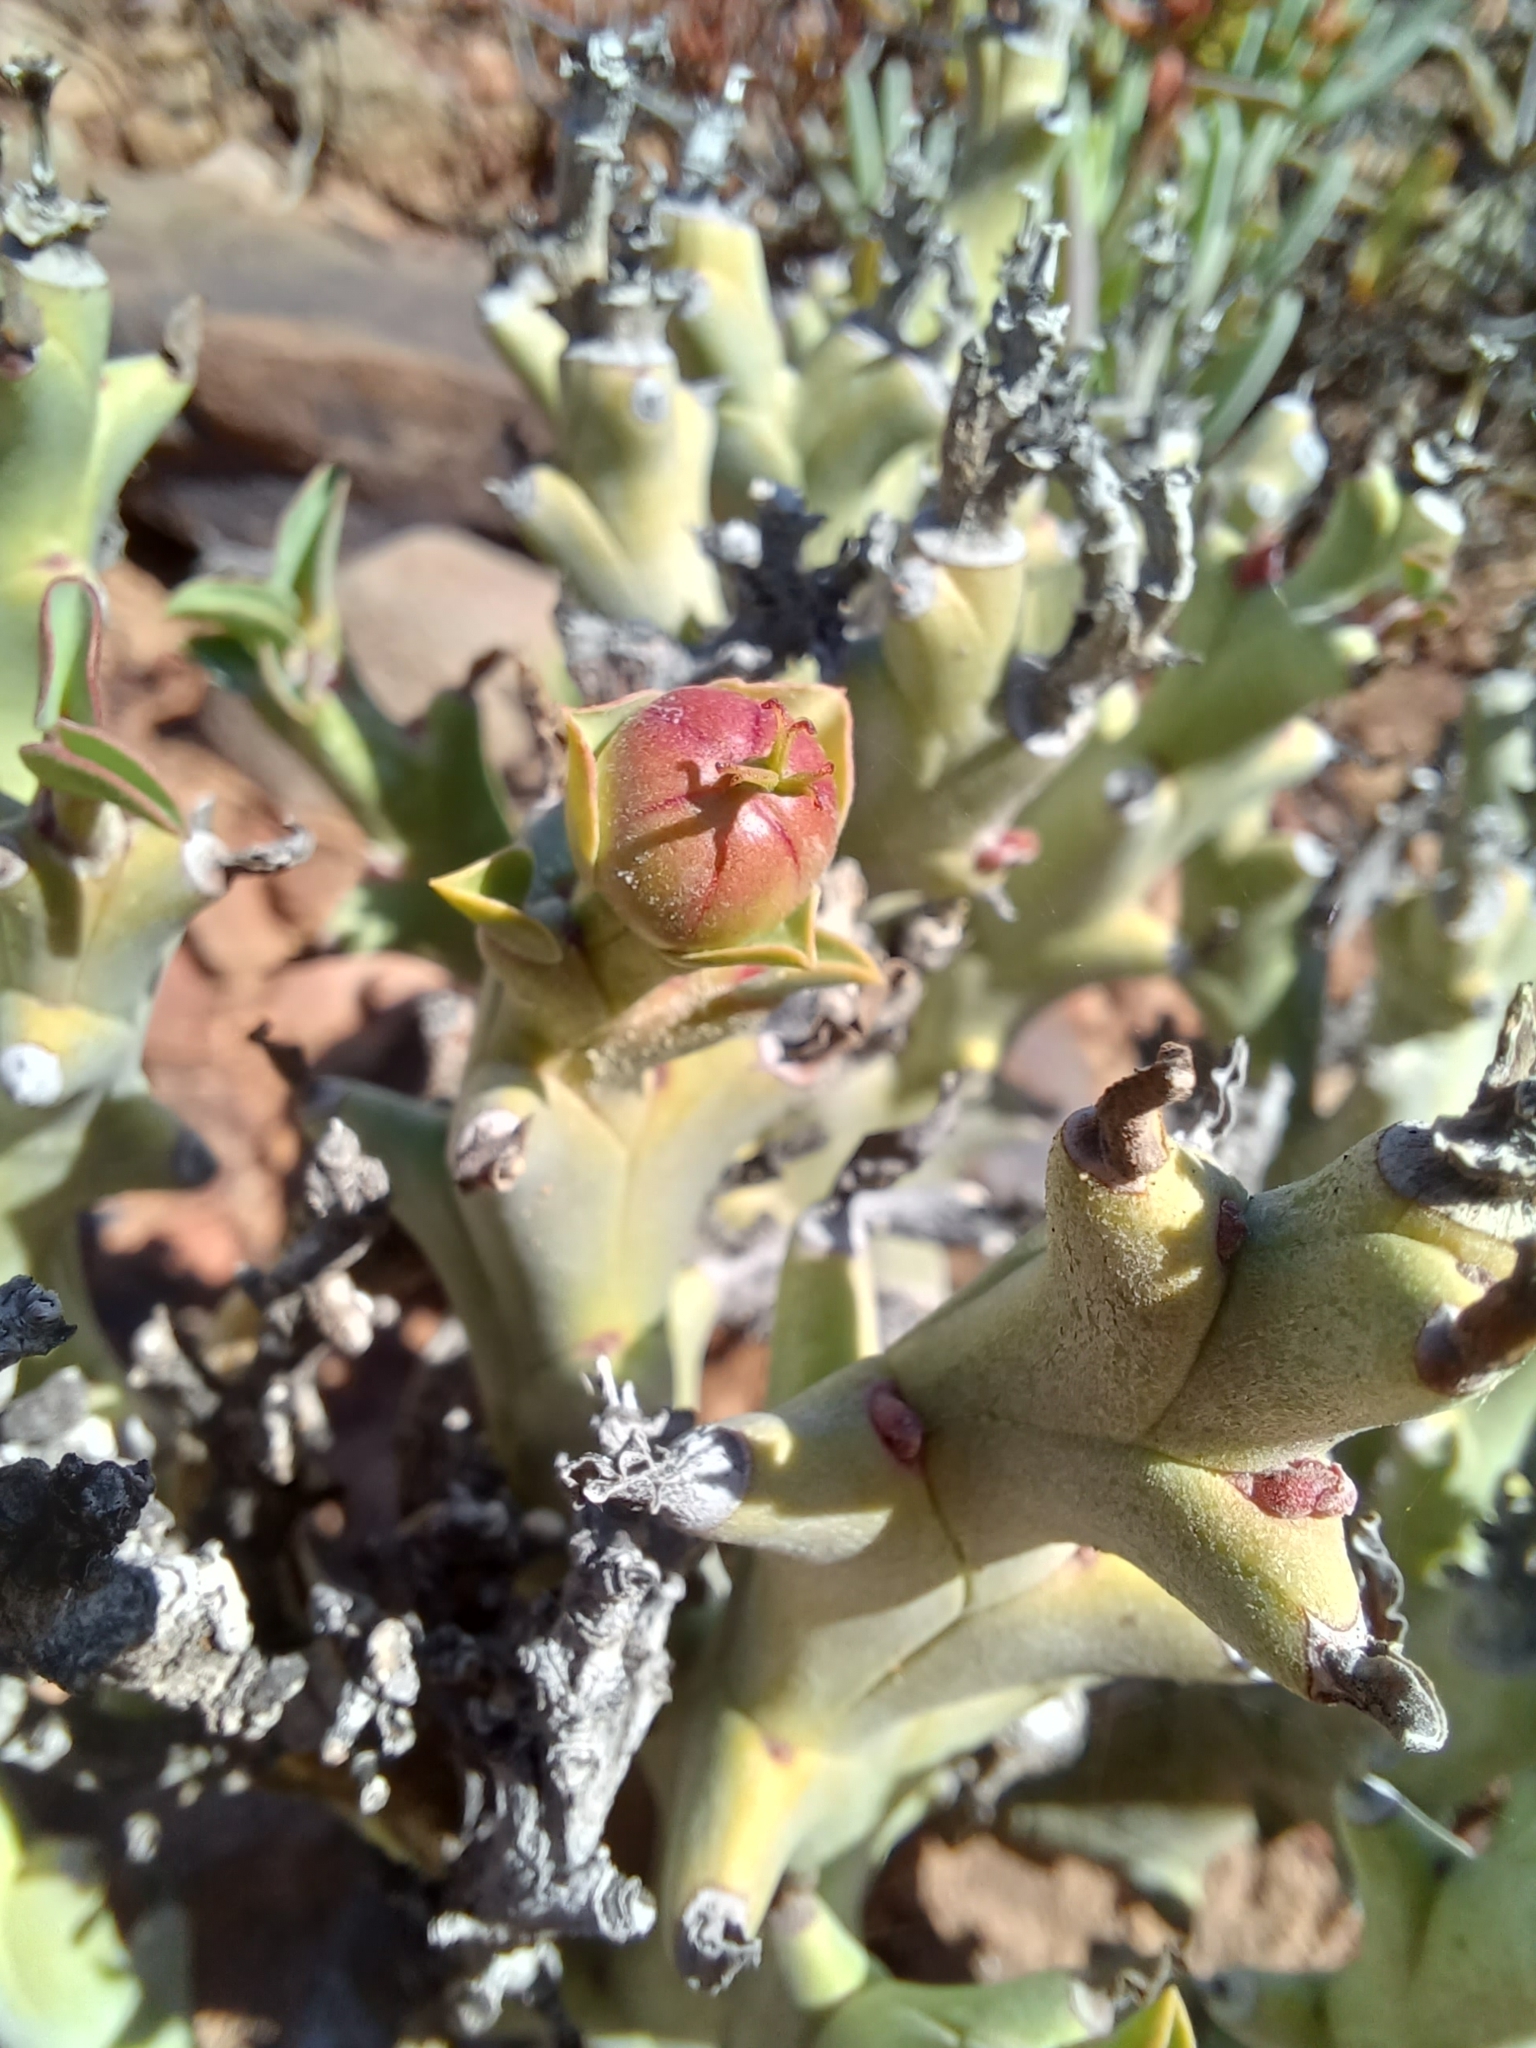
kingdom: Plantae
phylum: Tracheophyta
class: Magnoliopsida
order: Malpighiales
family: Euphorbiaceae
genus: Euphorbia
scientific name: Euphorbia hamata
